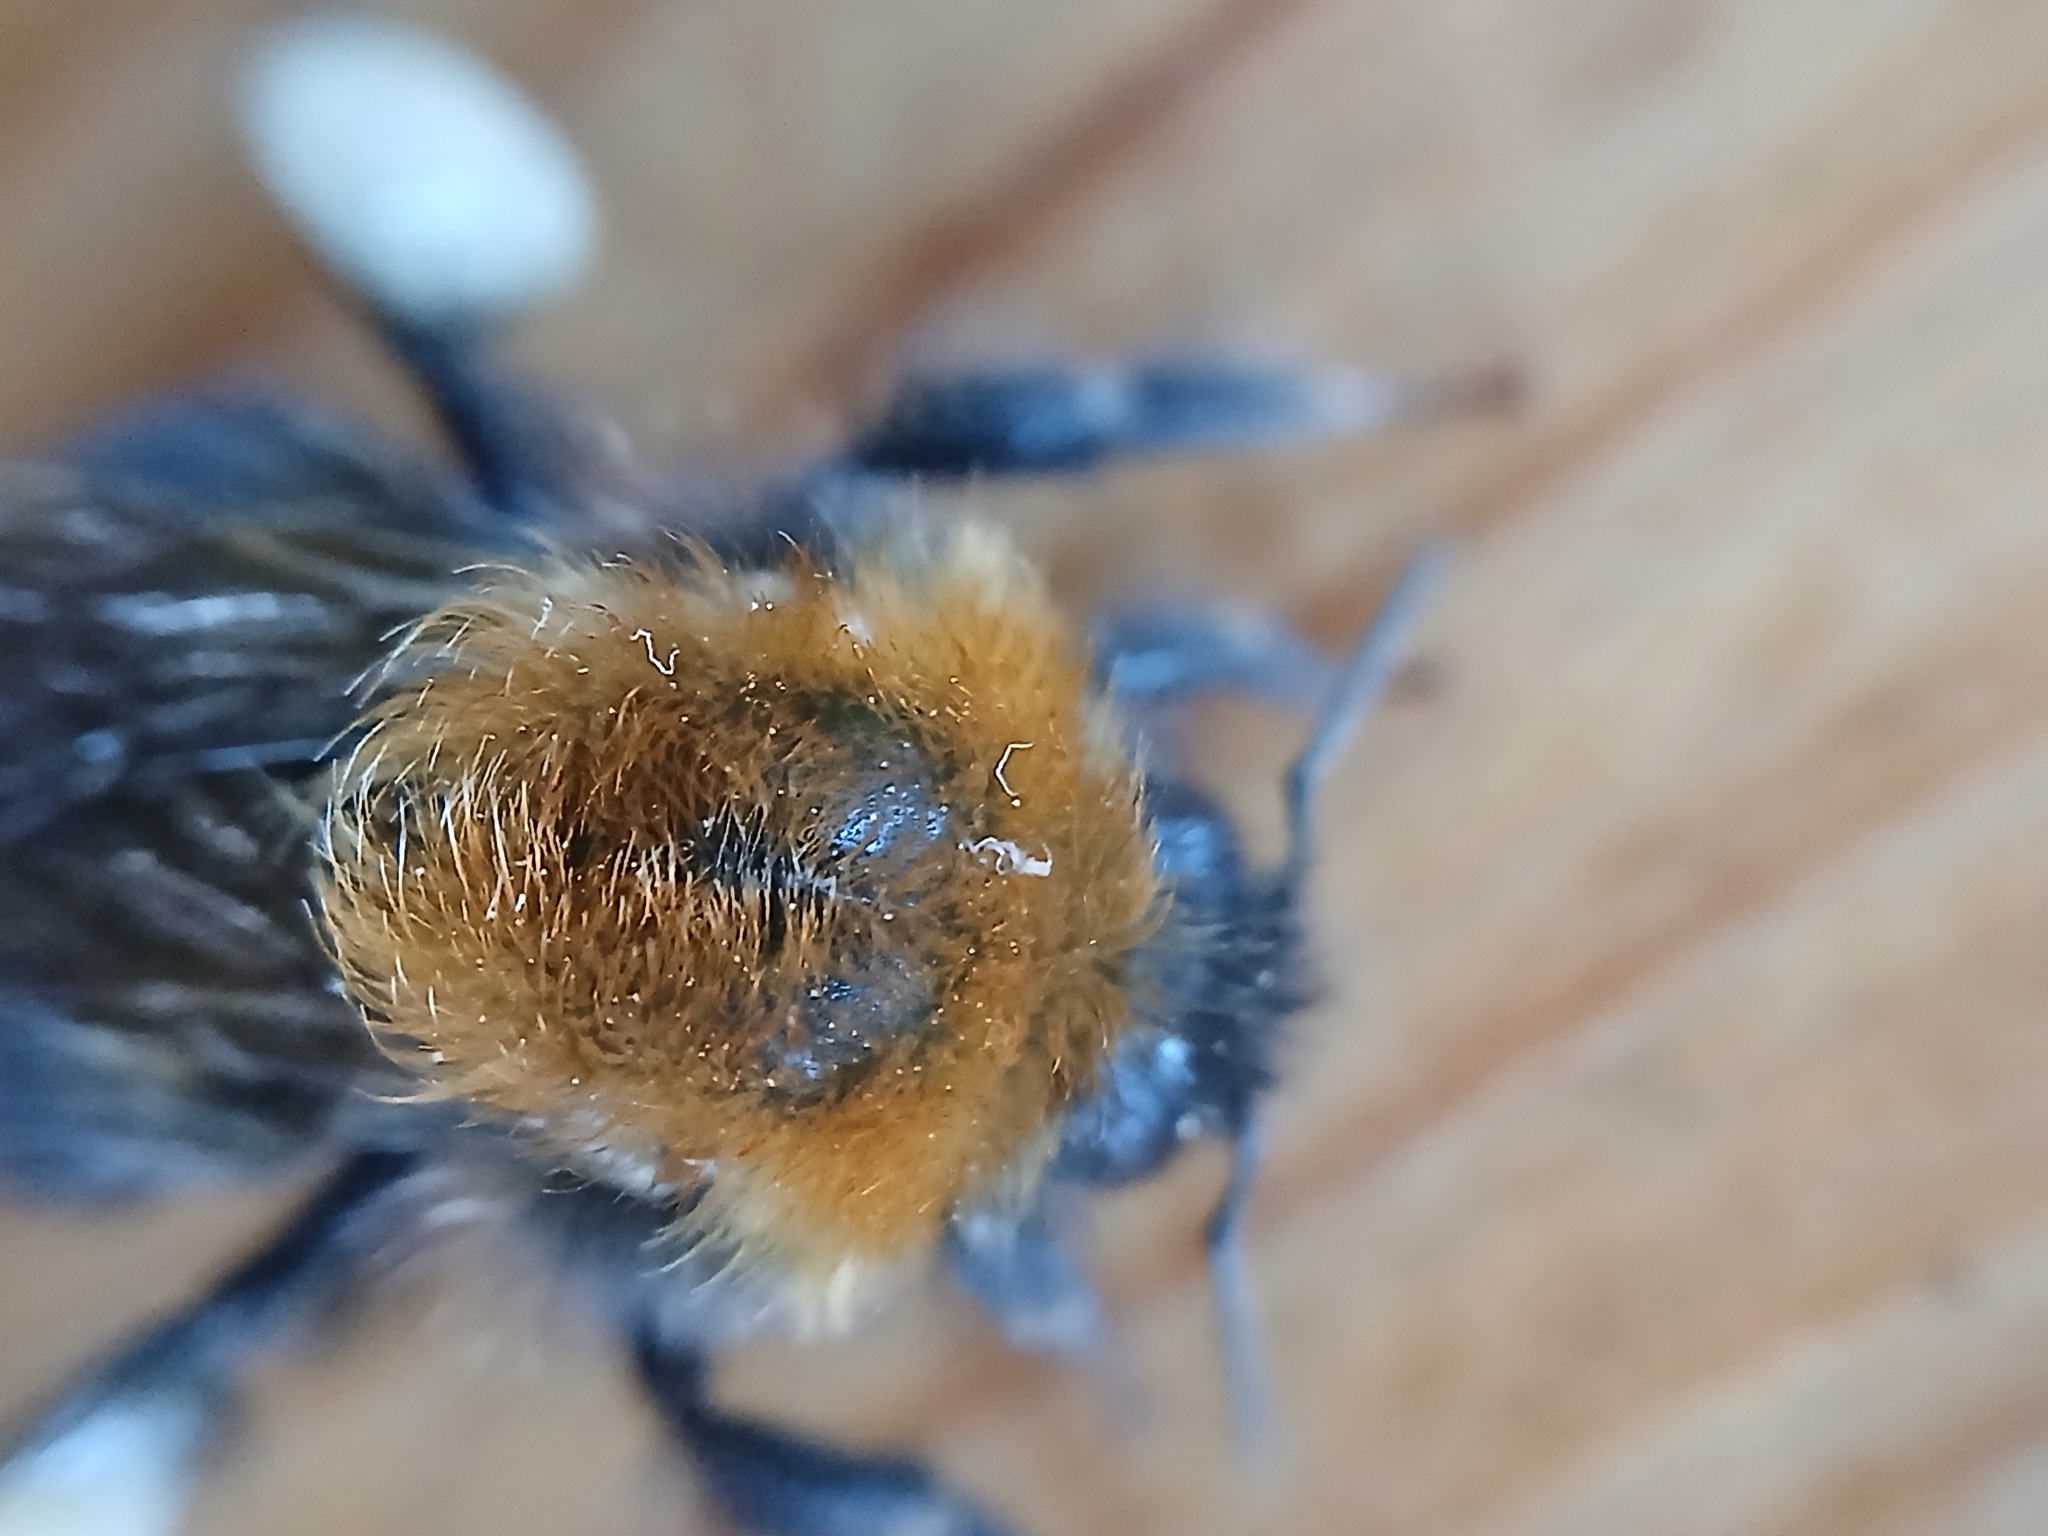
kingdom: Animalia
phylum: Arthropoda
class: Insecta
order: Hymenoptera
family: Apidae
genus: Bombus
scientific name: Bombus hypnorum
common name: New garden bumblebee
